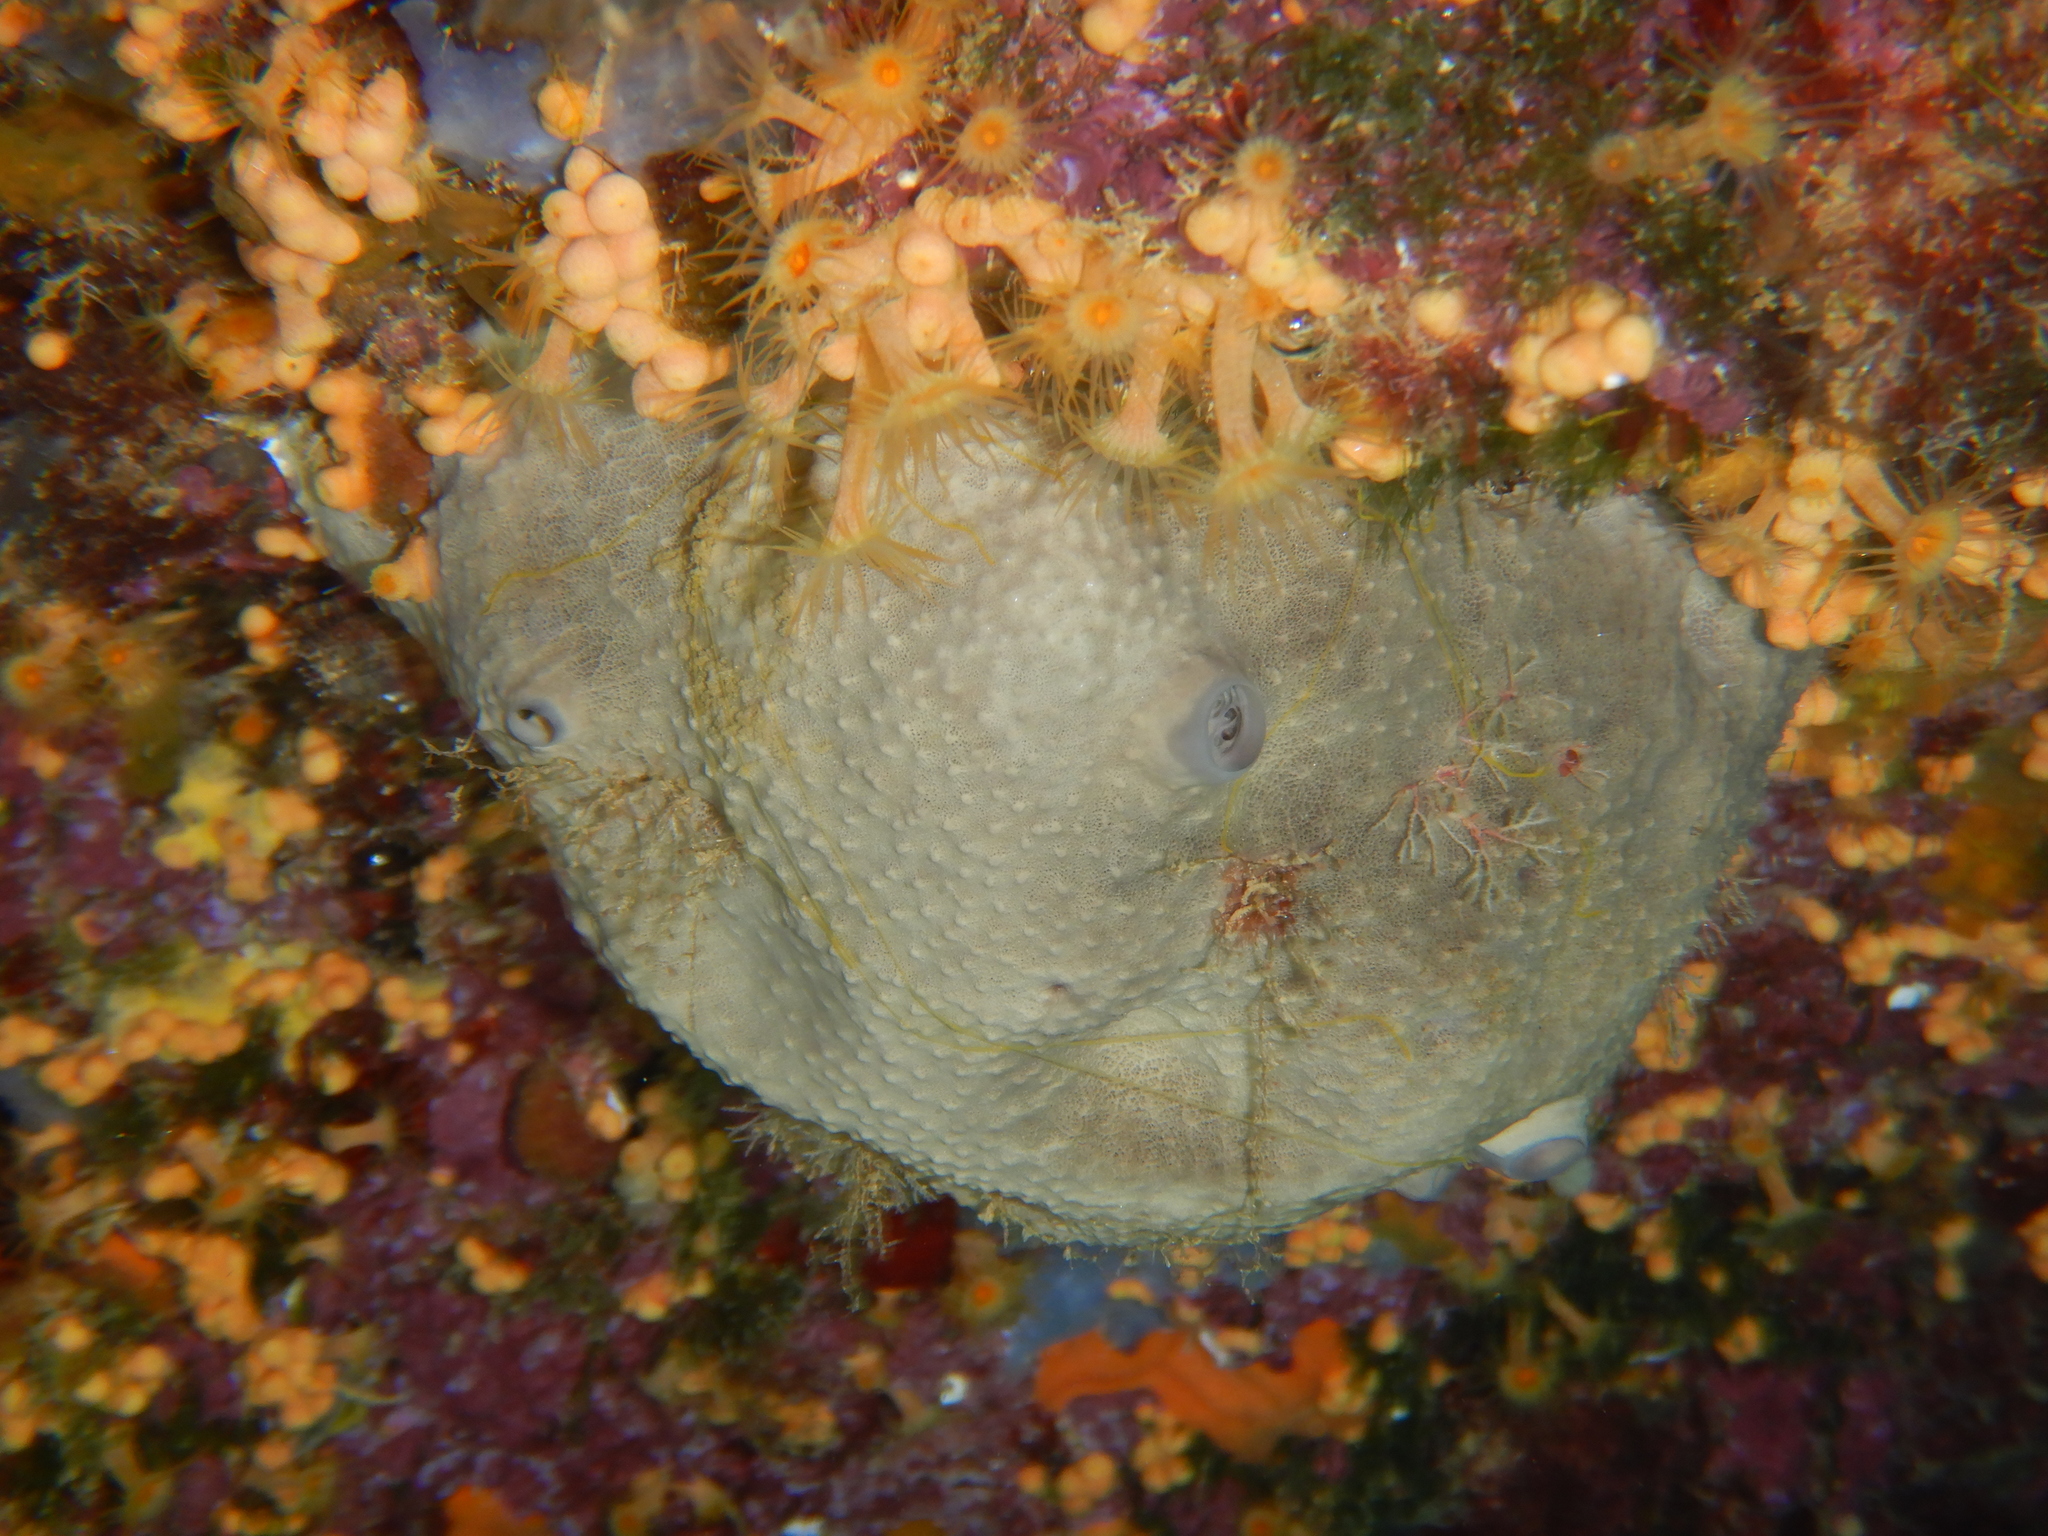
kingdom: Animalia
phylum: Porifera
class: Demospongiae
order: Dictyoceratida
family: Irciniidae
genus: Ircinia
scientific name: Ircinia oros
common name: Grey leather sponge
